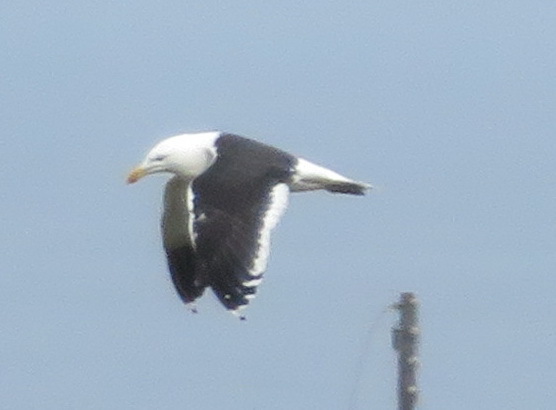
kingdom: Animalia
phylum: Chordata
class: Aves
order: Charadriiformes
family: Laridae
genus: Larus
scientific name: Larus dominicanus
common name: Kelp gull
